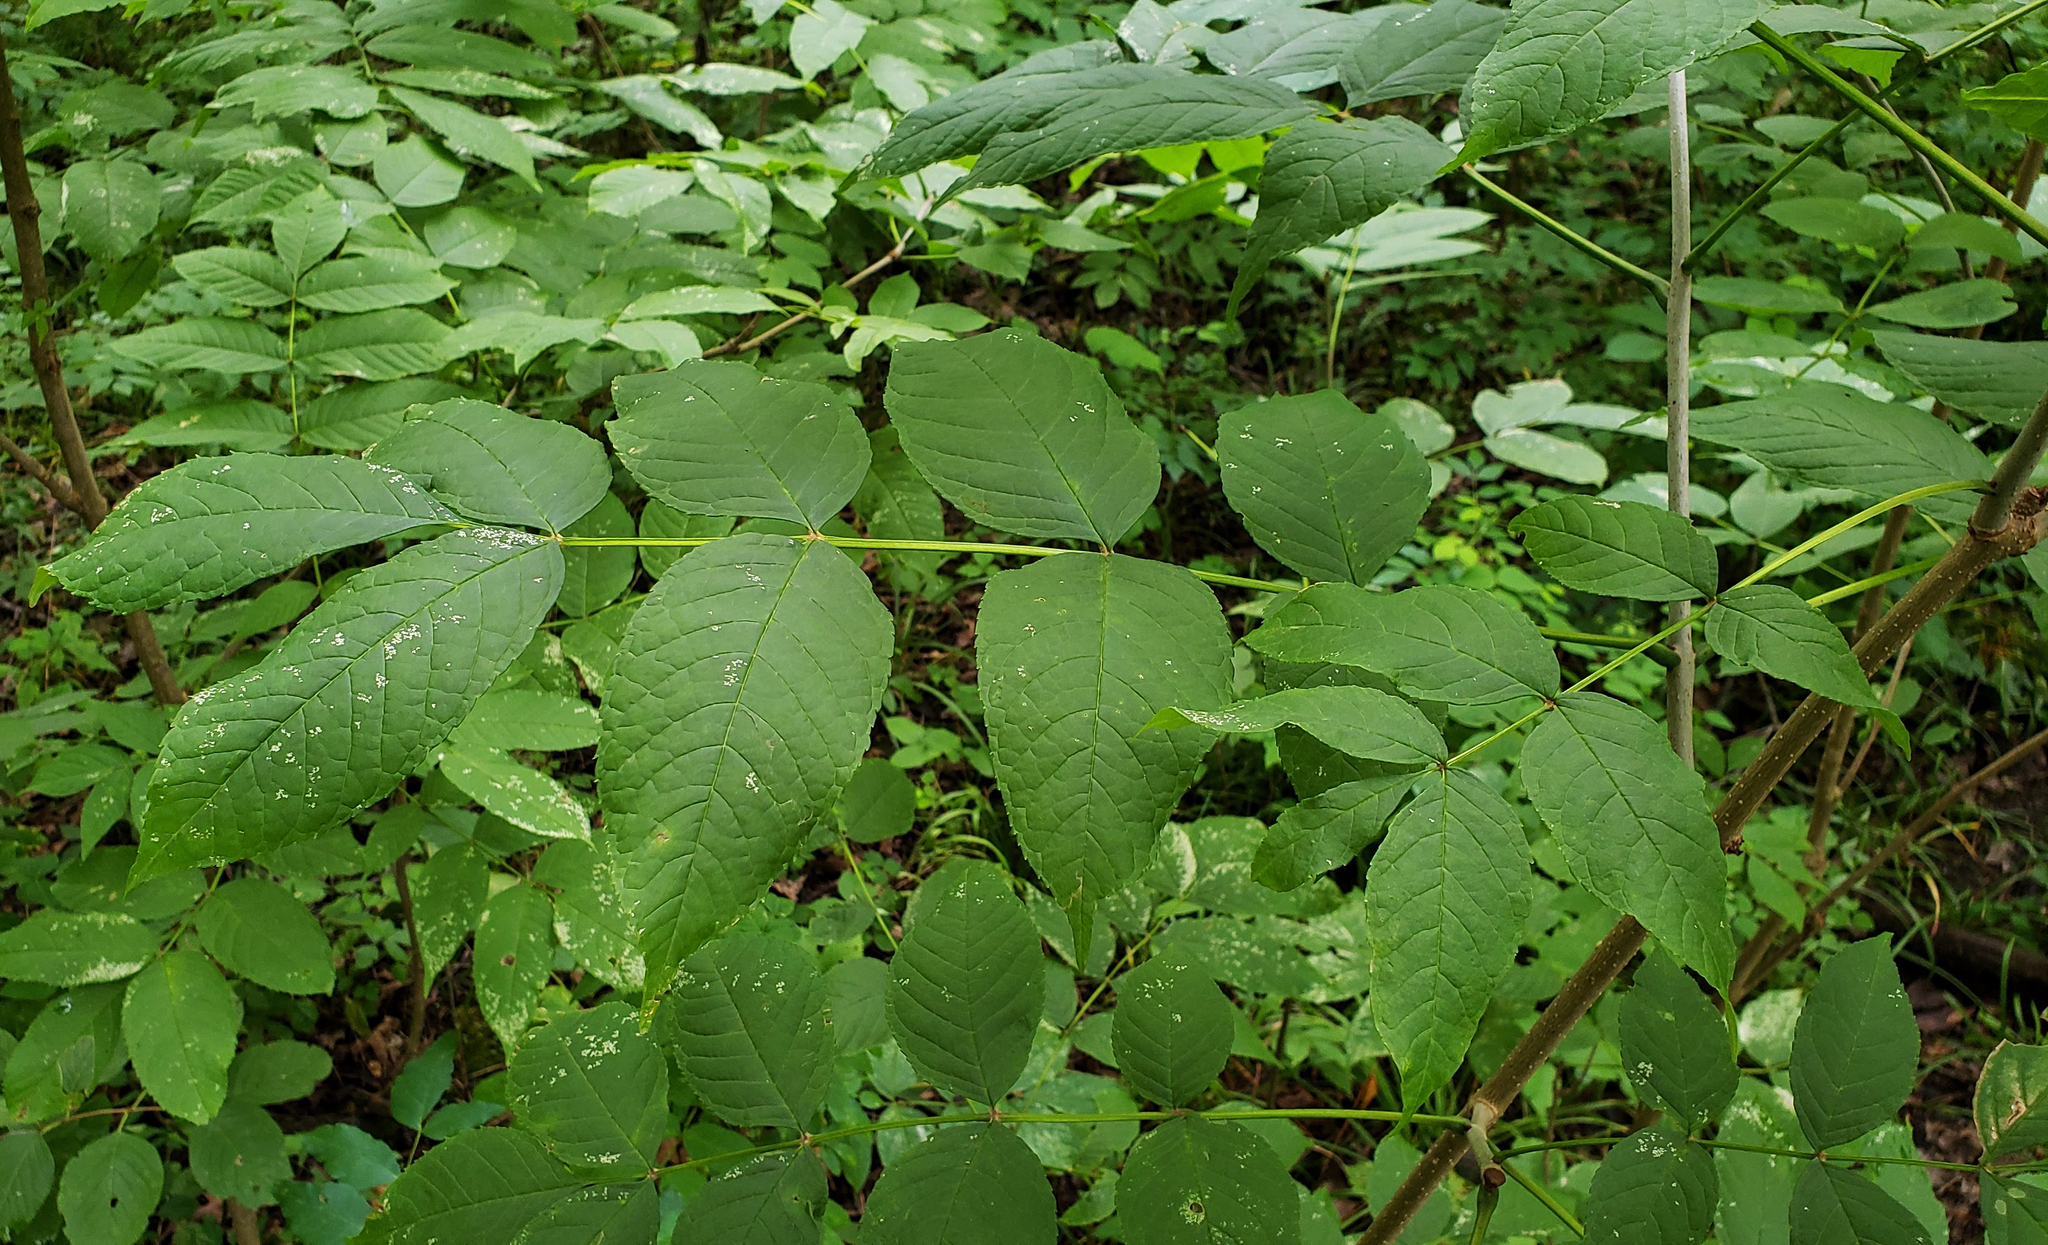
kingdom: Plantae
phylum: Tracheophyta
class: Magnoliopsida
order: Lamiales
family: Oleaceae
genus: Fraxinus
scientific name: Fraxinus nigra
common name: Black ash
